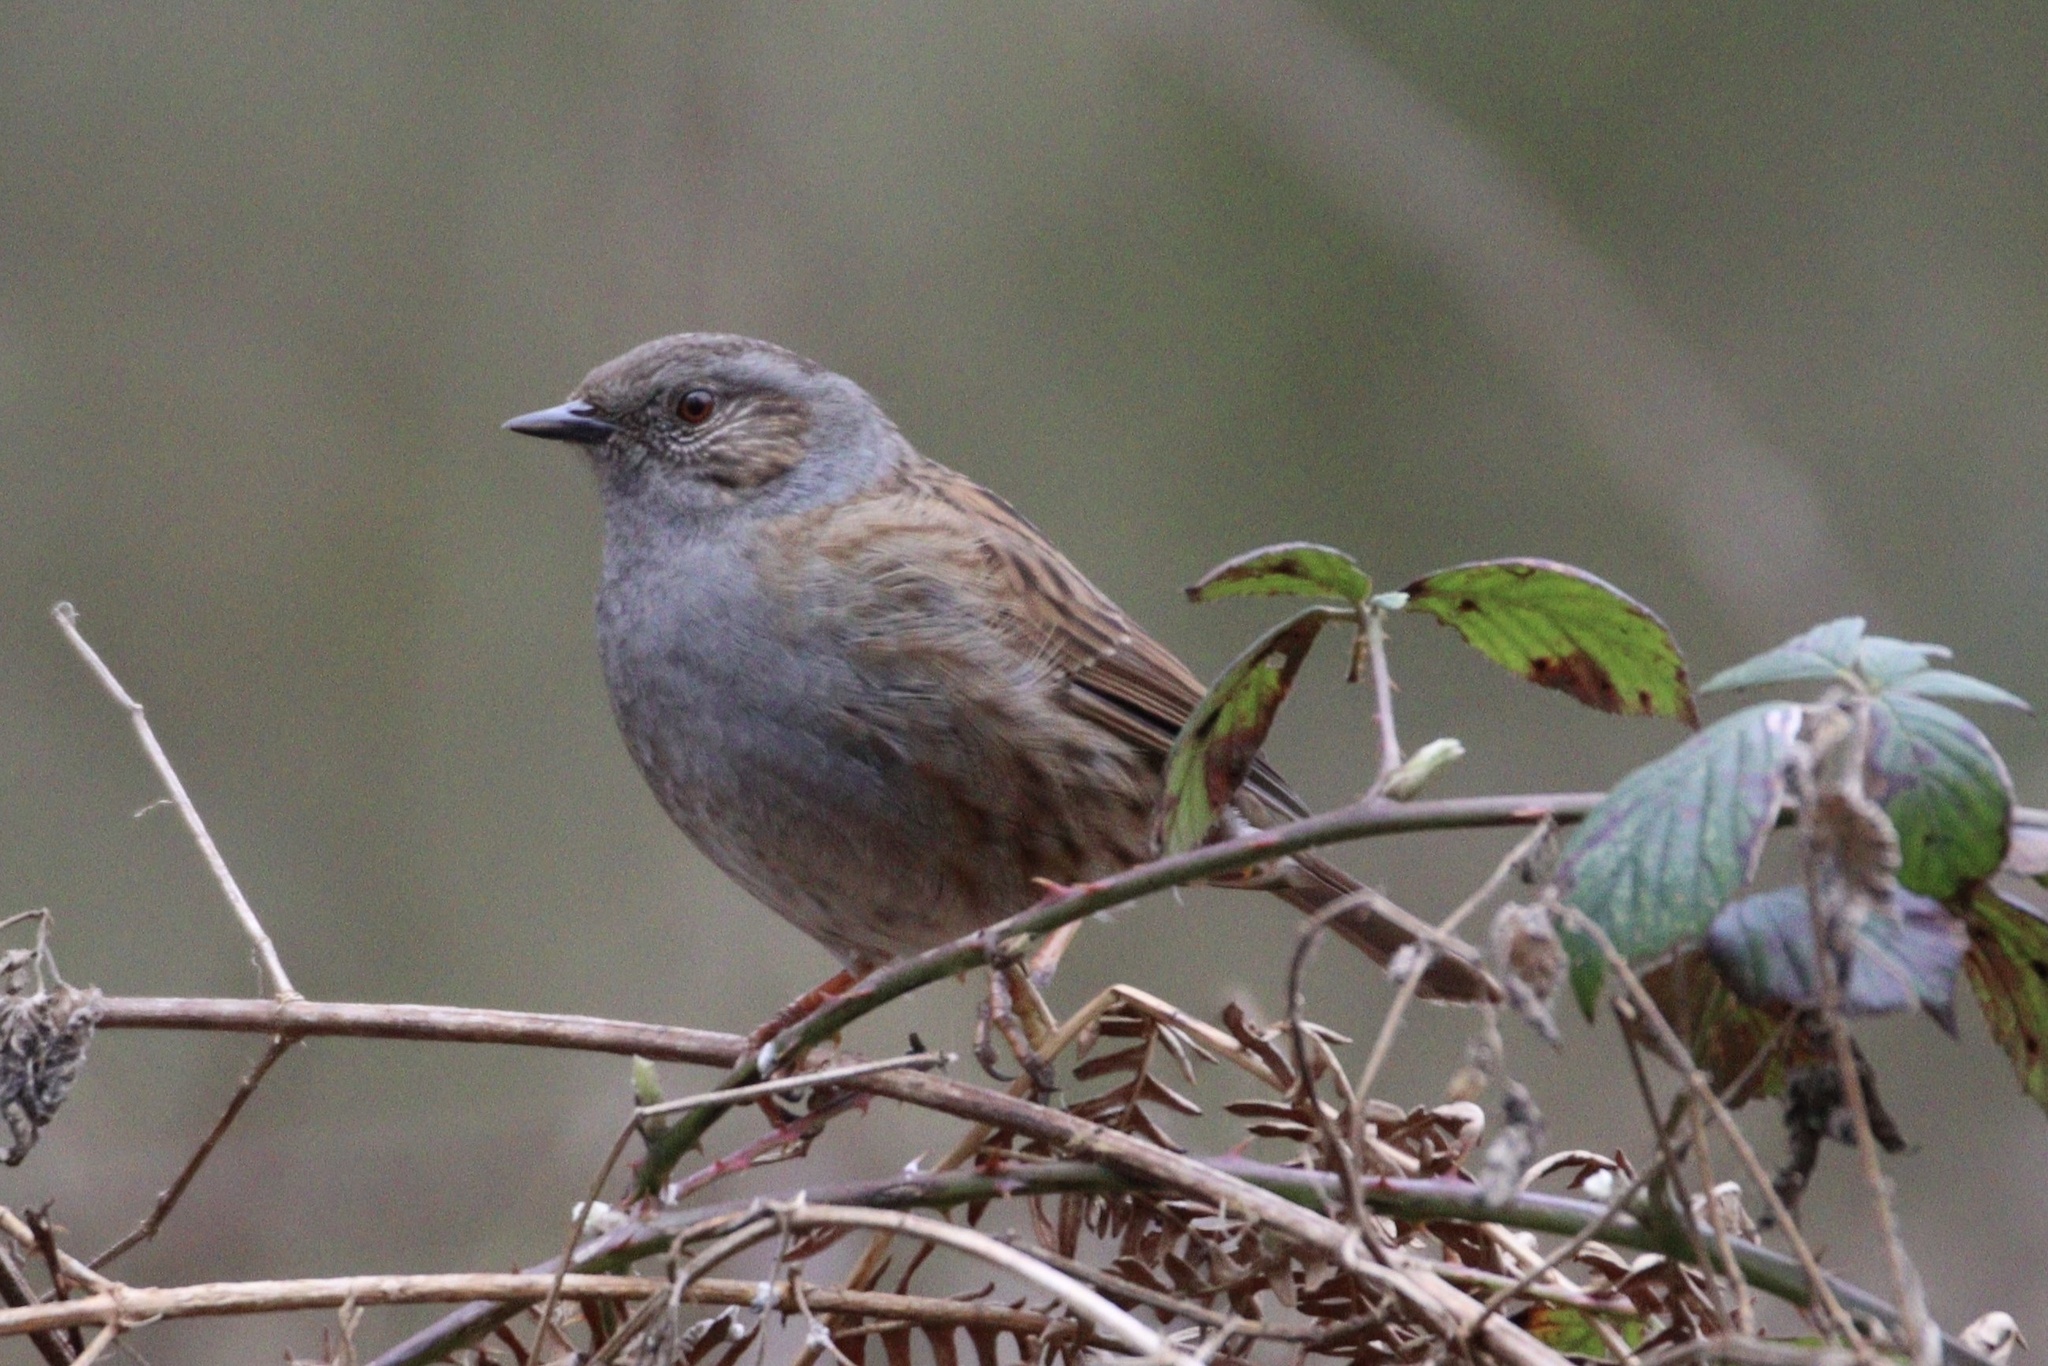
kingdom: Animalia
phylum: Chordata
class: Aves
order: Passeriformes
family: Prunellidae
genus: Prunella
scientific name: Prunella modularis
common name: Dunnock
